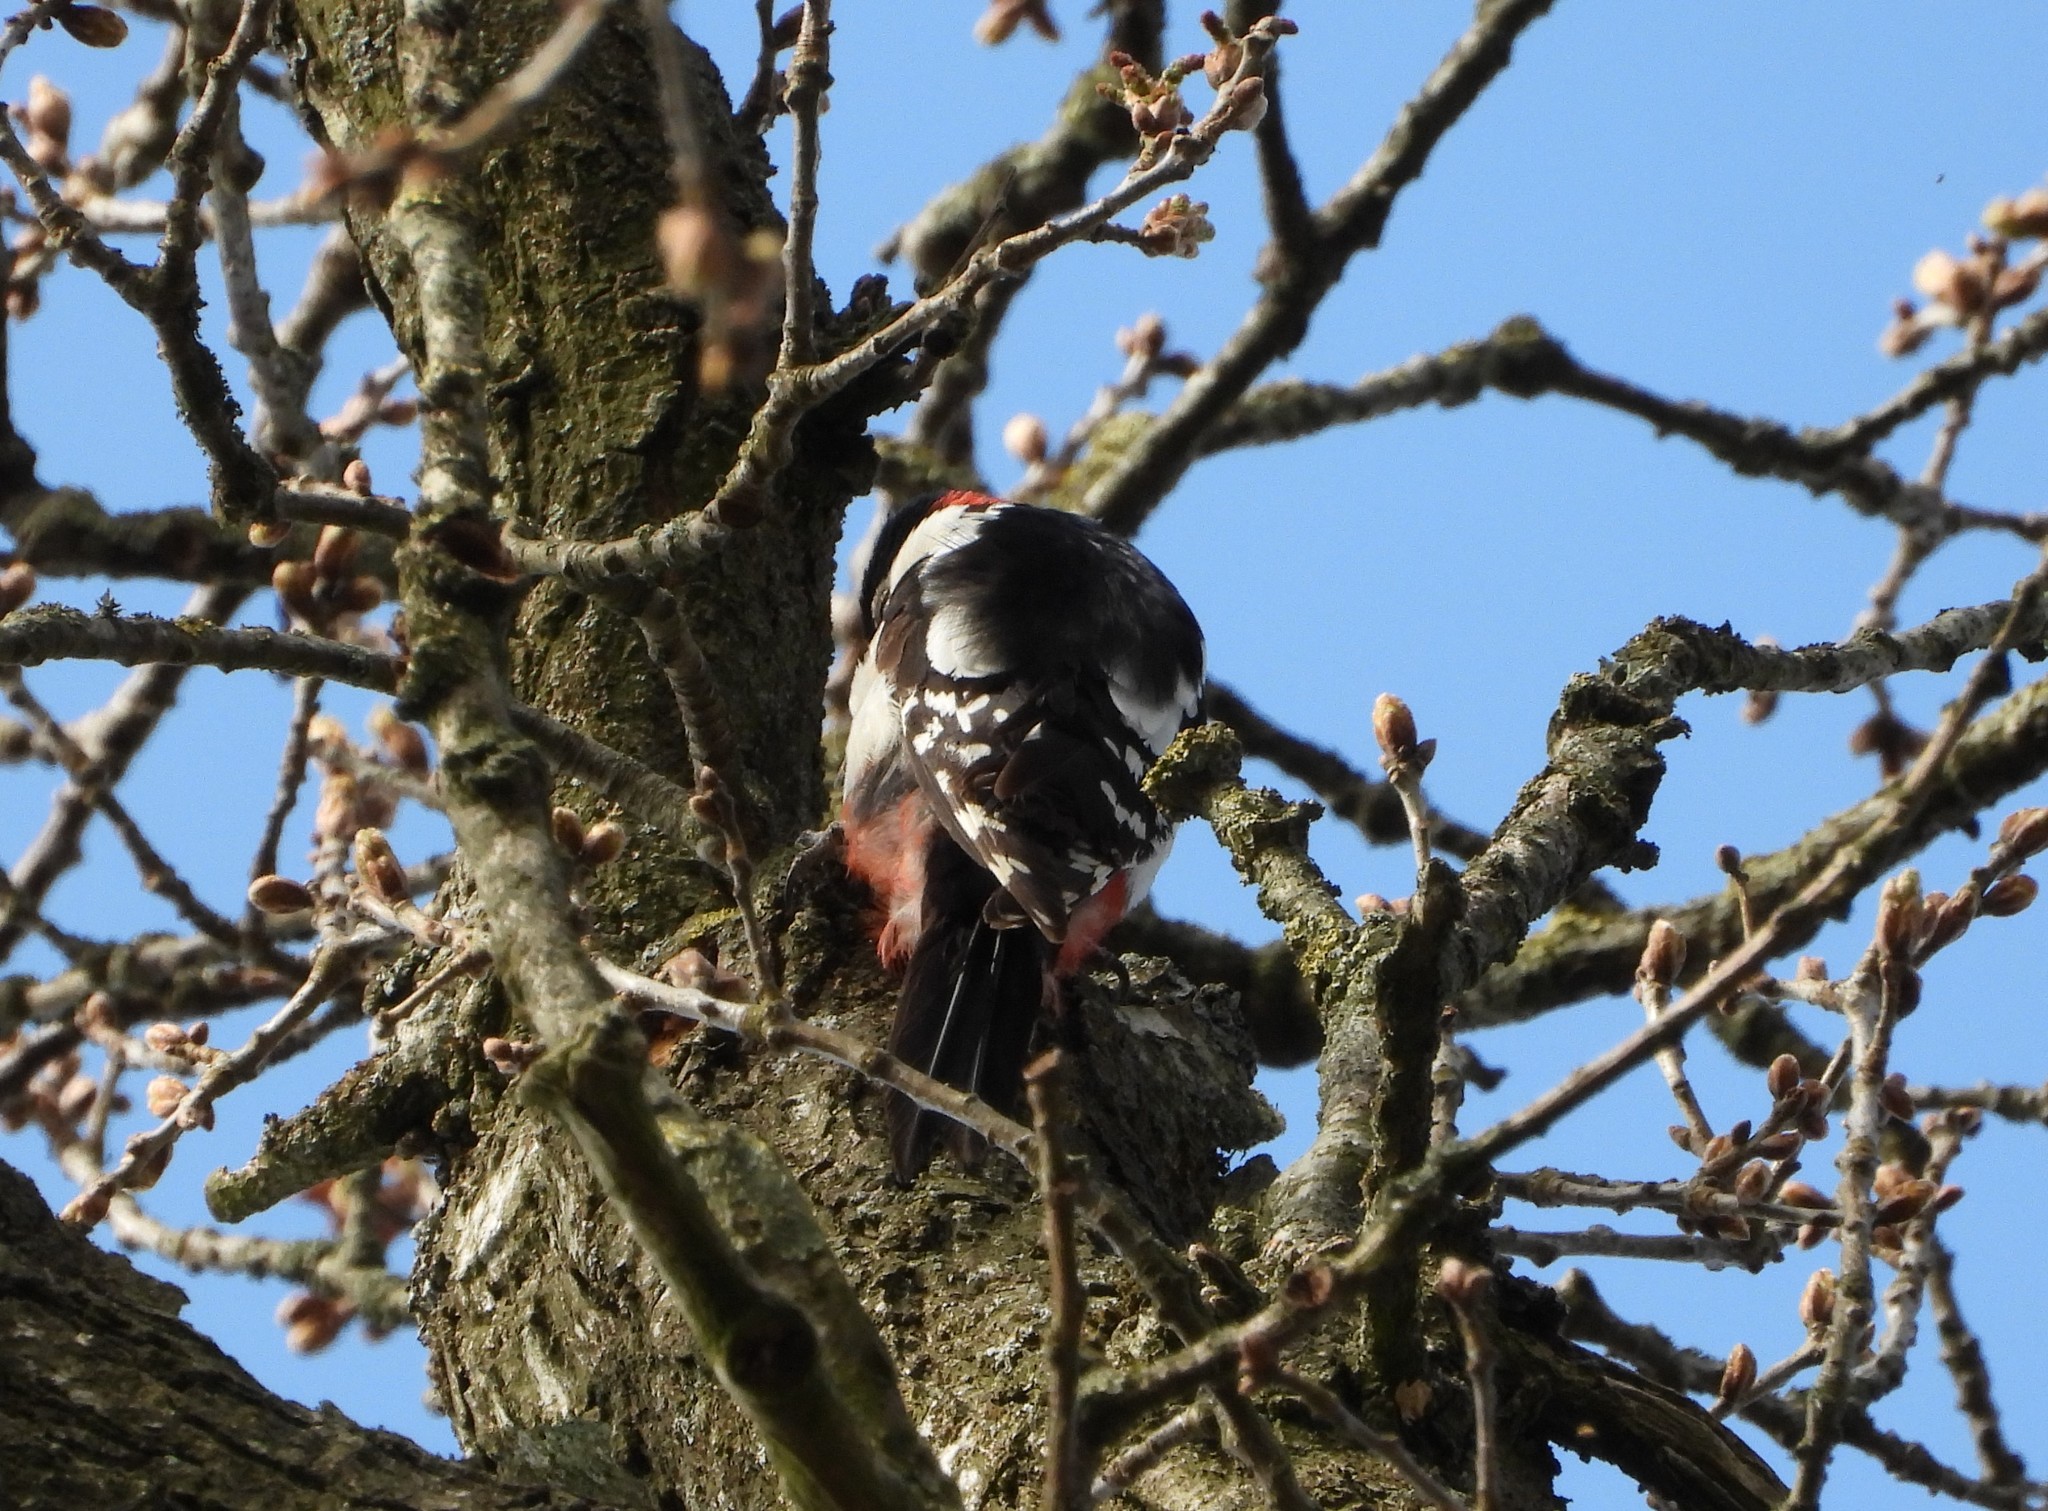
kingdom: Animalia
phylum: Chordata
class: Aves
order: Piciformes
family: Picidae
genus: Dendrocopos
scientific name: Dendrocopos major
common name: Great spotted woodpecker
